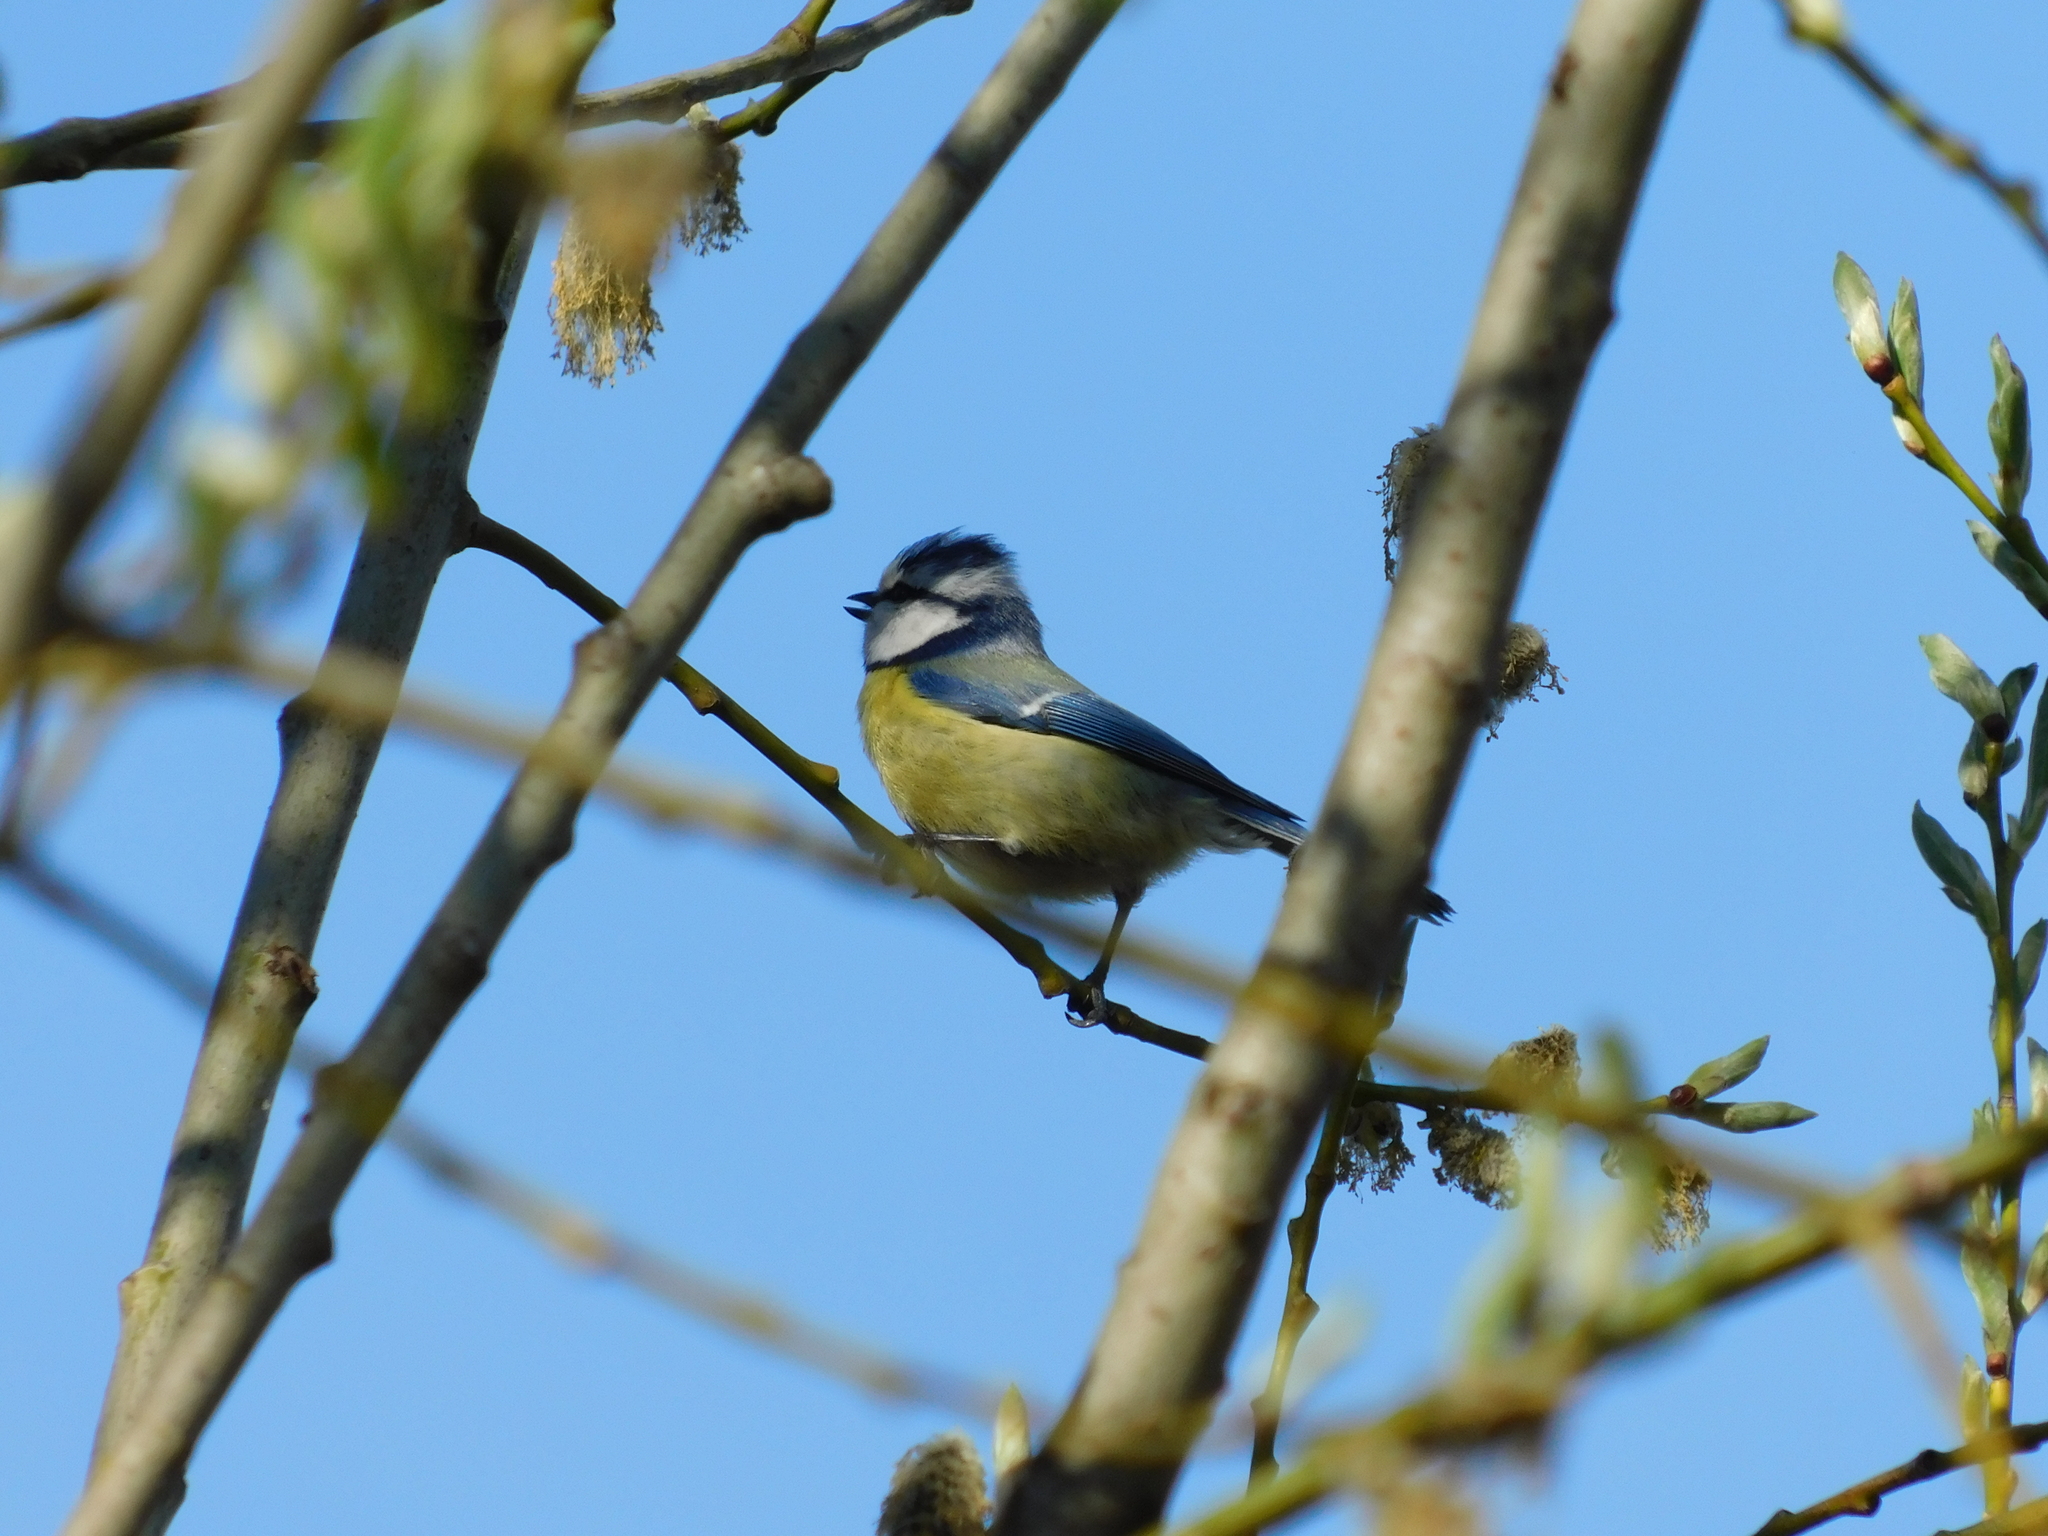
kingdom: Animalia
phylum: Chordata
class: Aves
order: Passeriformes
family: Paridae
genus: Cyanistes
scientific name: Cyanistes caeruleus
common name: Eurasian blue tit
